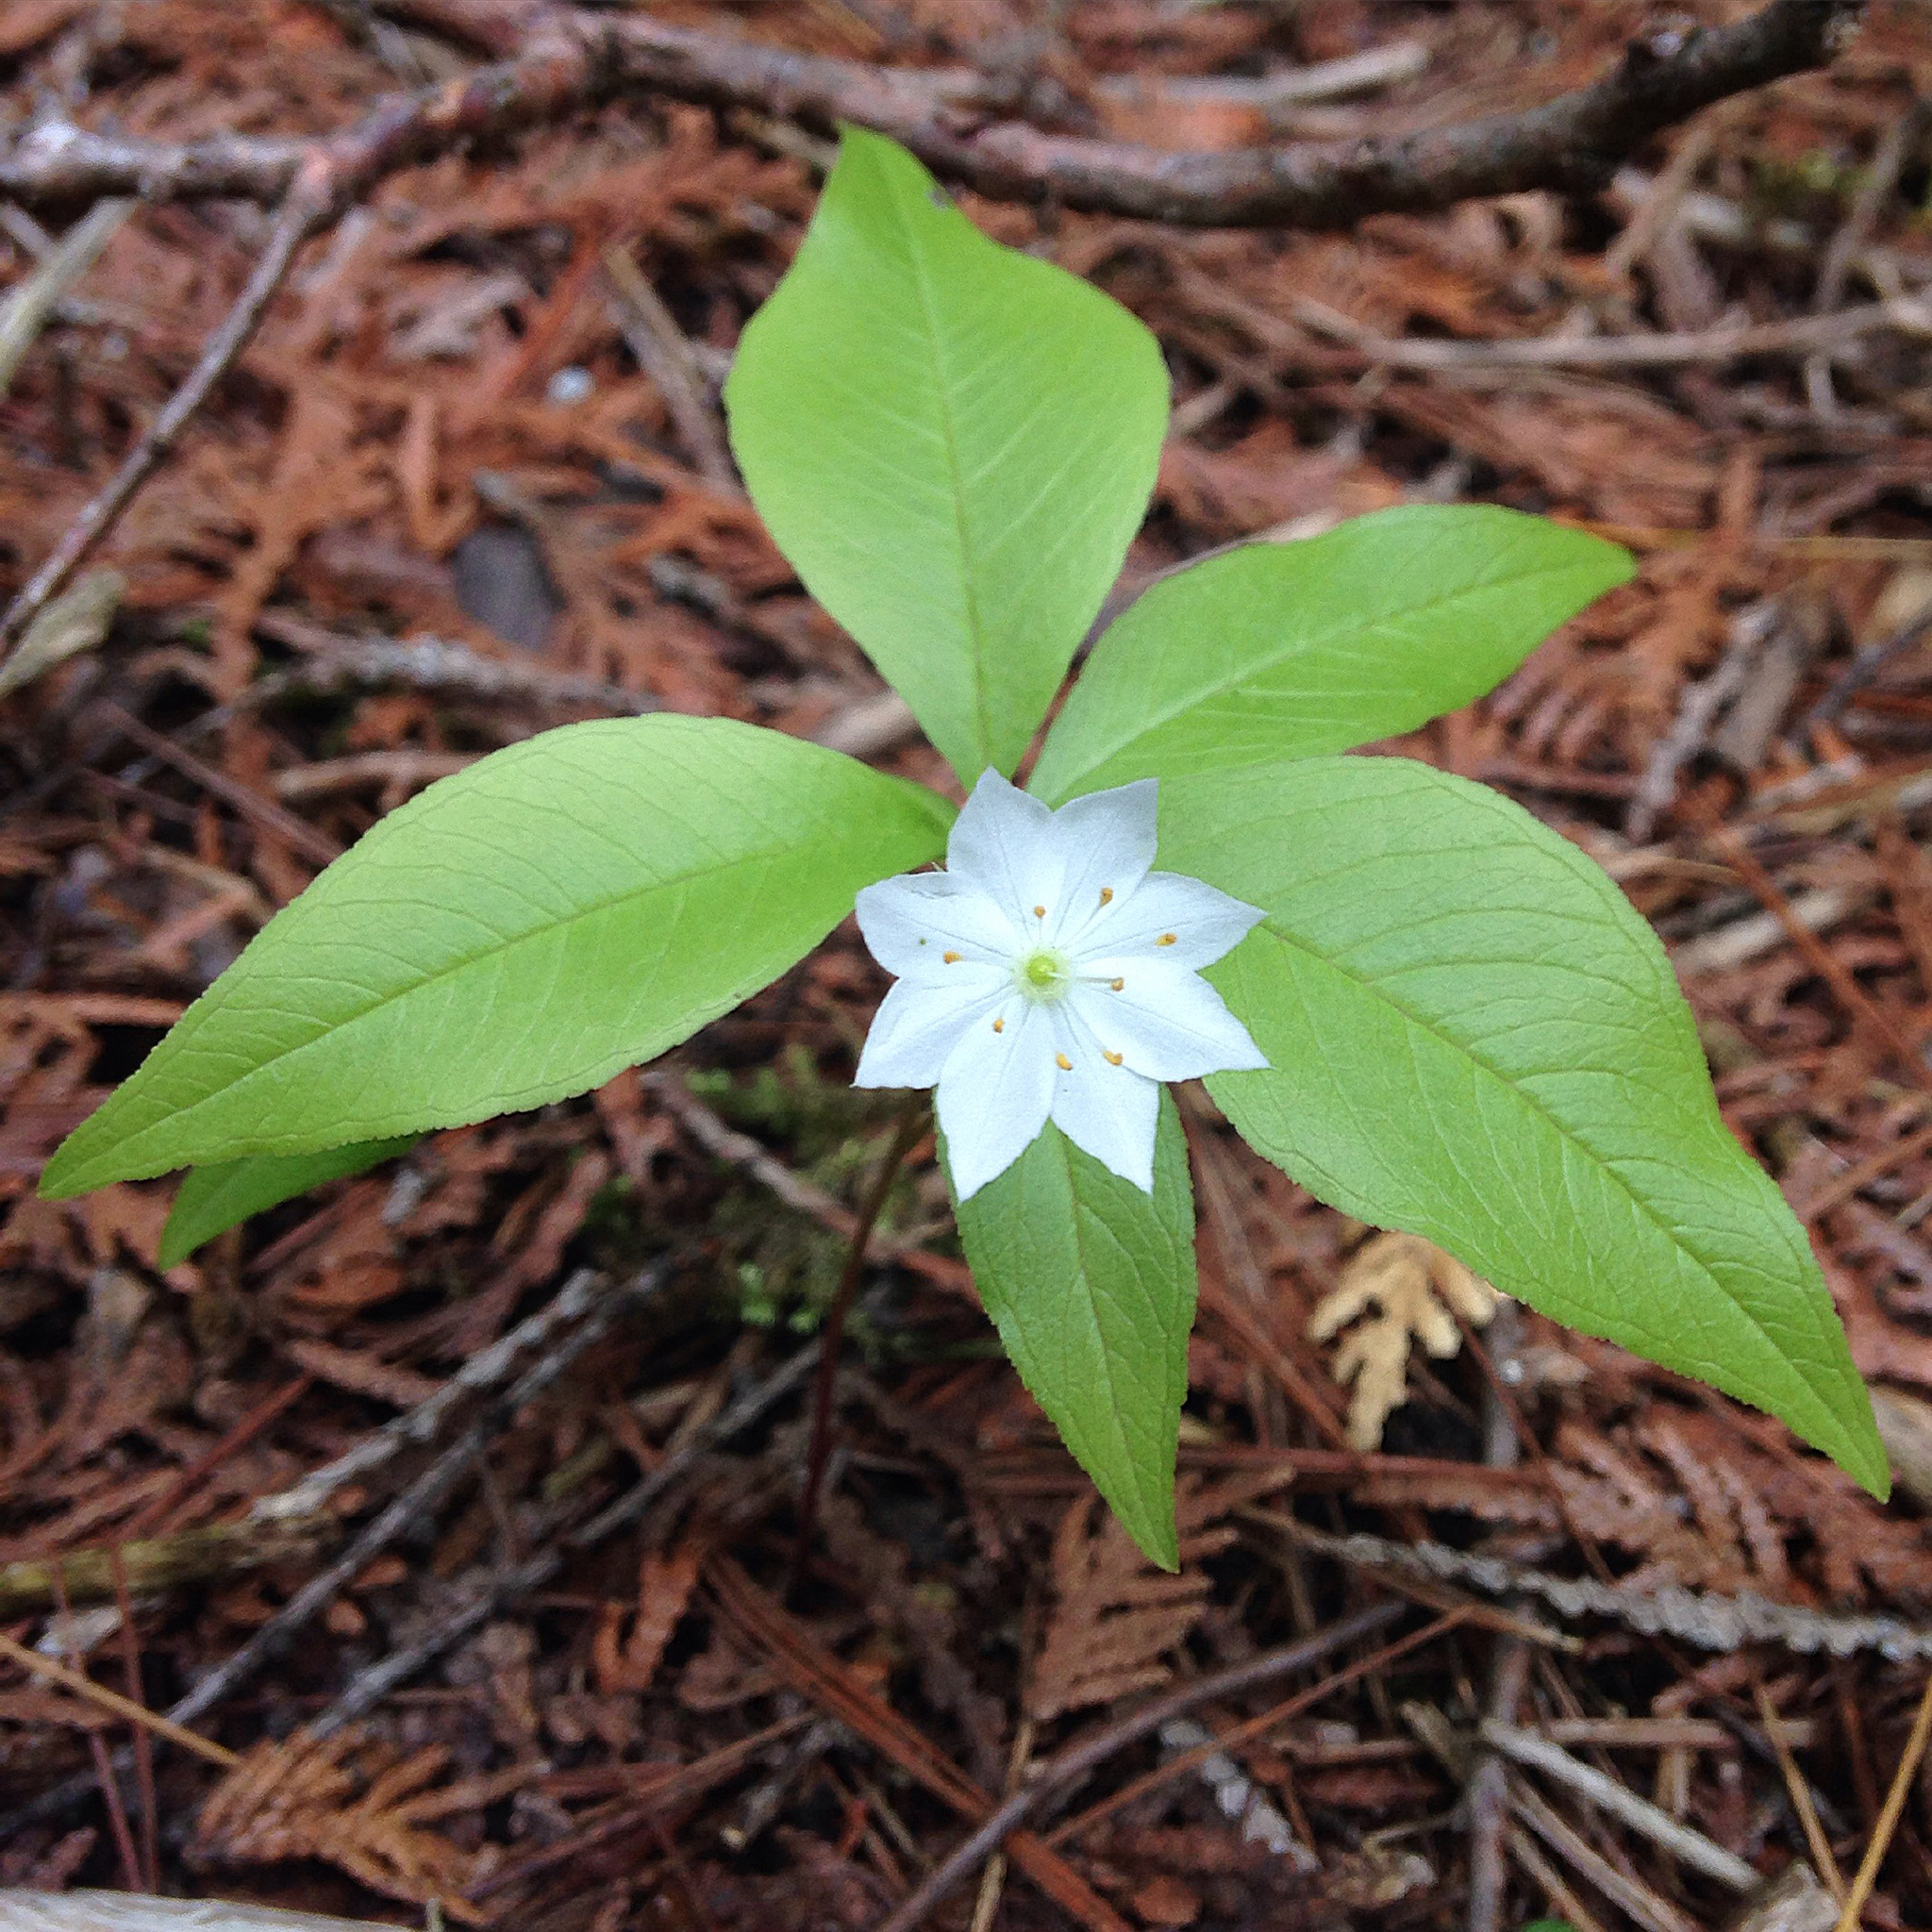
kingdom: Plantae
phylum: Tracheophyta
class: Magnoliopsida
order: Ericales
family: Primulaceae
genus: Lysimachia
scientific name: Lysimachia borealis
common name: American starflower
